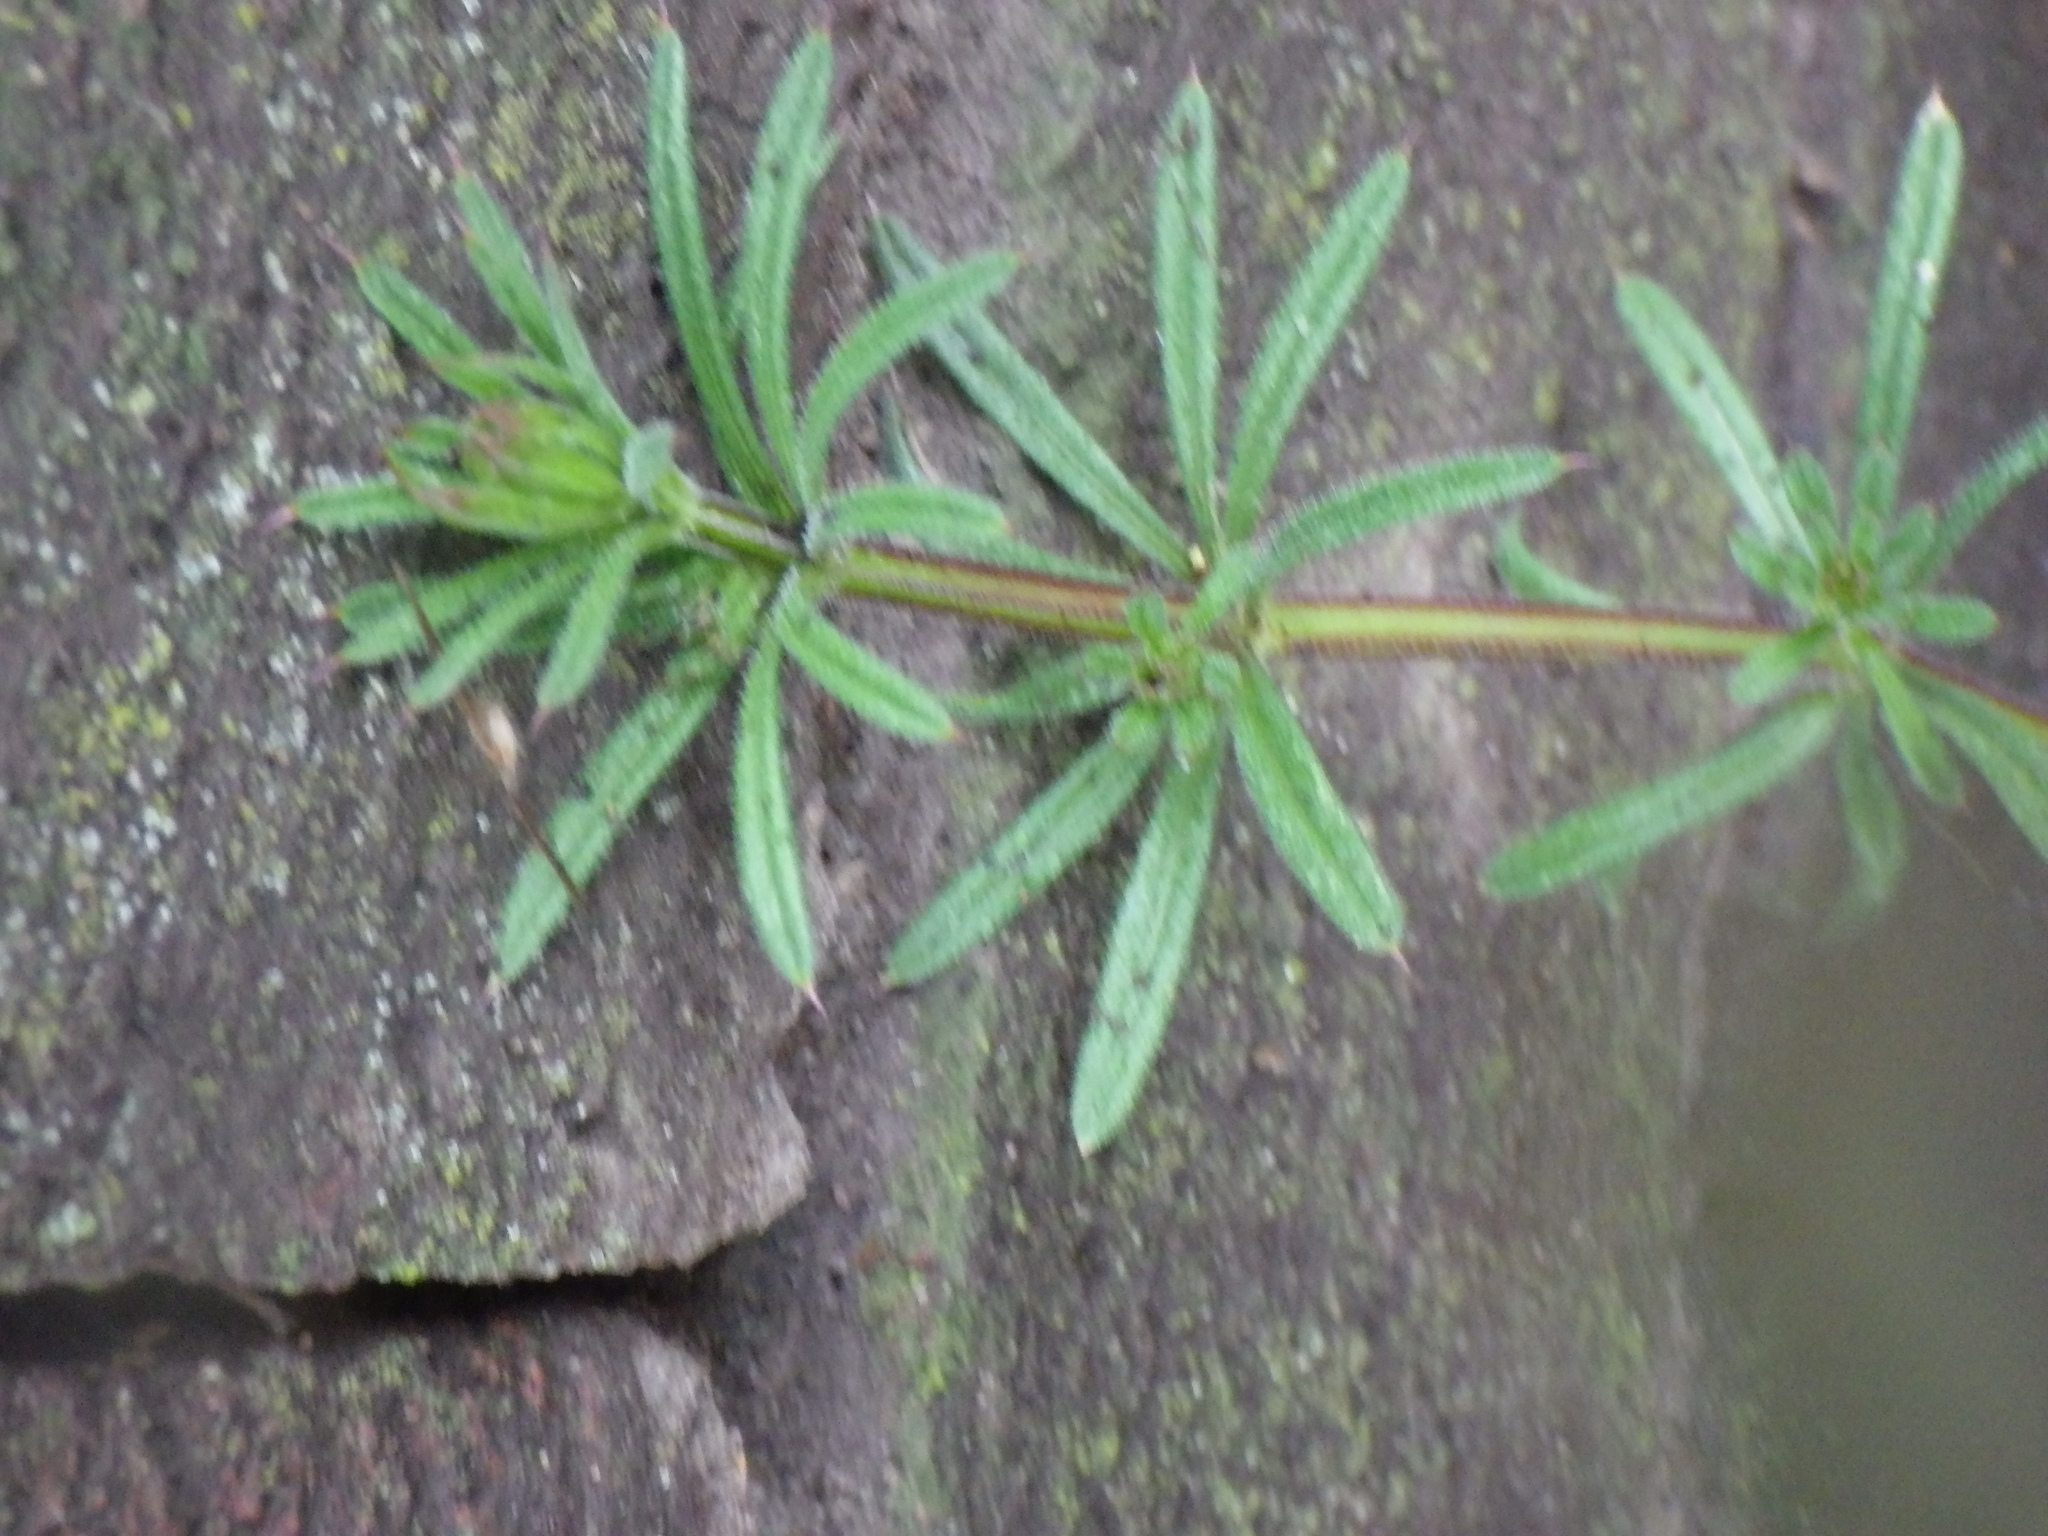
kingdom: Plantae
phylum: Tracheophyta
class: Magnoliopsida
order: Gentianales
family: Rubiaceae
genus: Galium
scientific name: Galium aparine
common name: Cleavers
